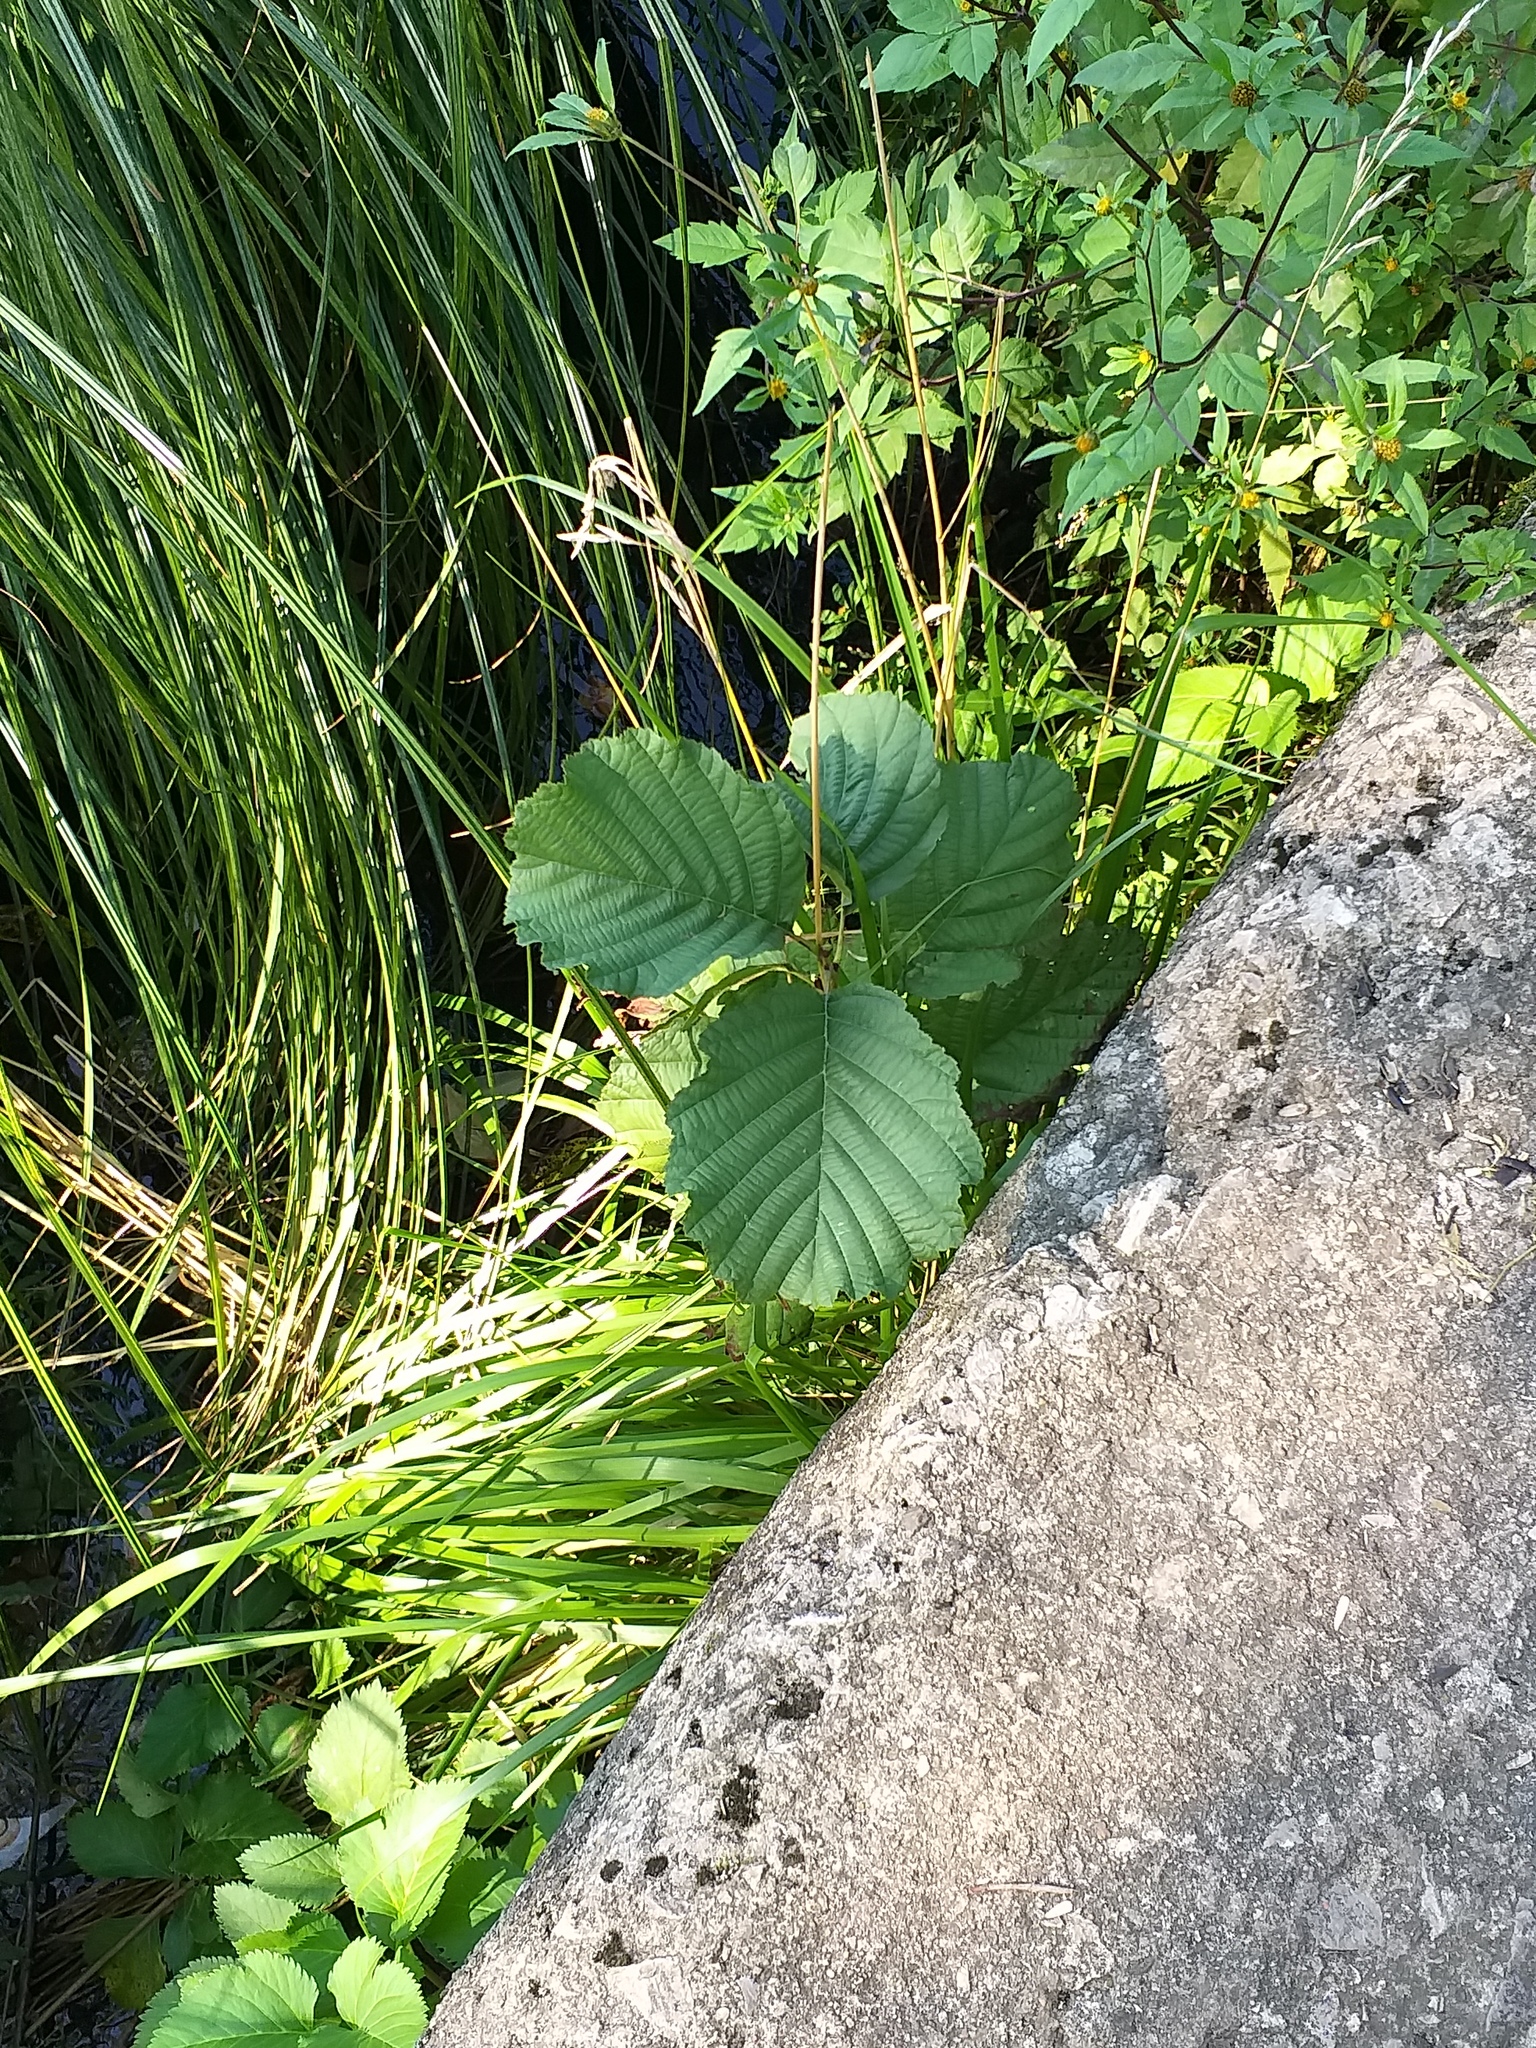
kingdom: Plantae
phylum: Tracheophyta
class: Magnoliopsida
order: Fagales
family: Betulaceae
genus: Alnus
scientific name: Alnus glutinosa
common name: Black alder
